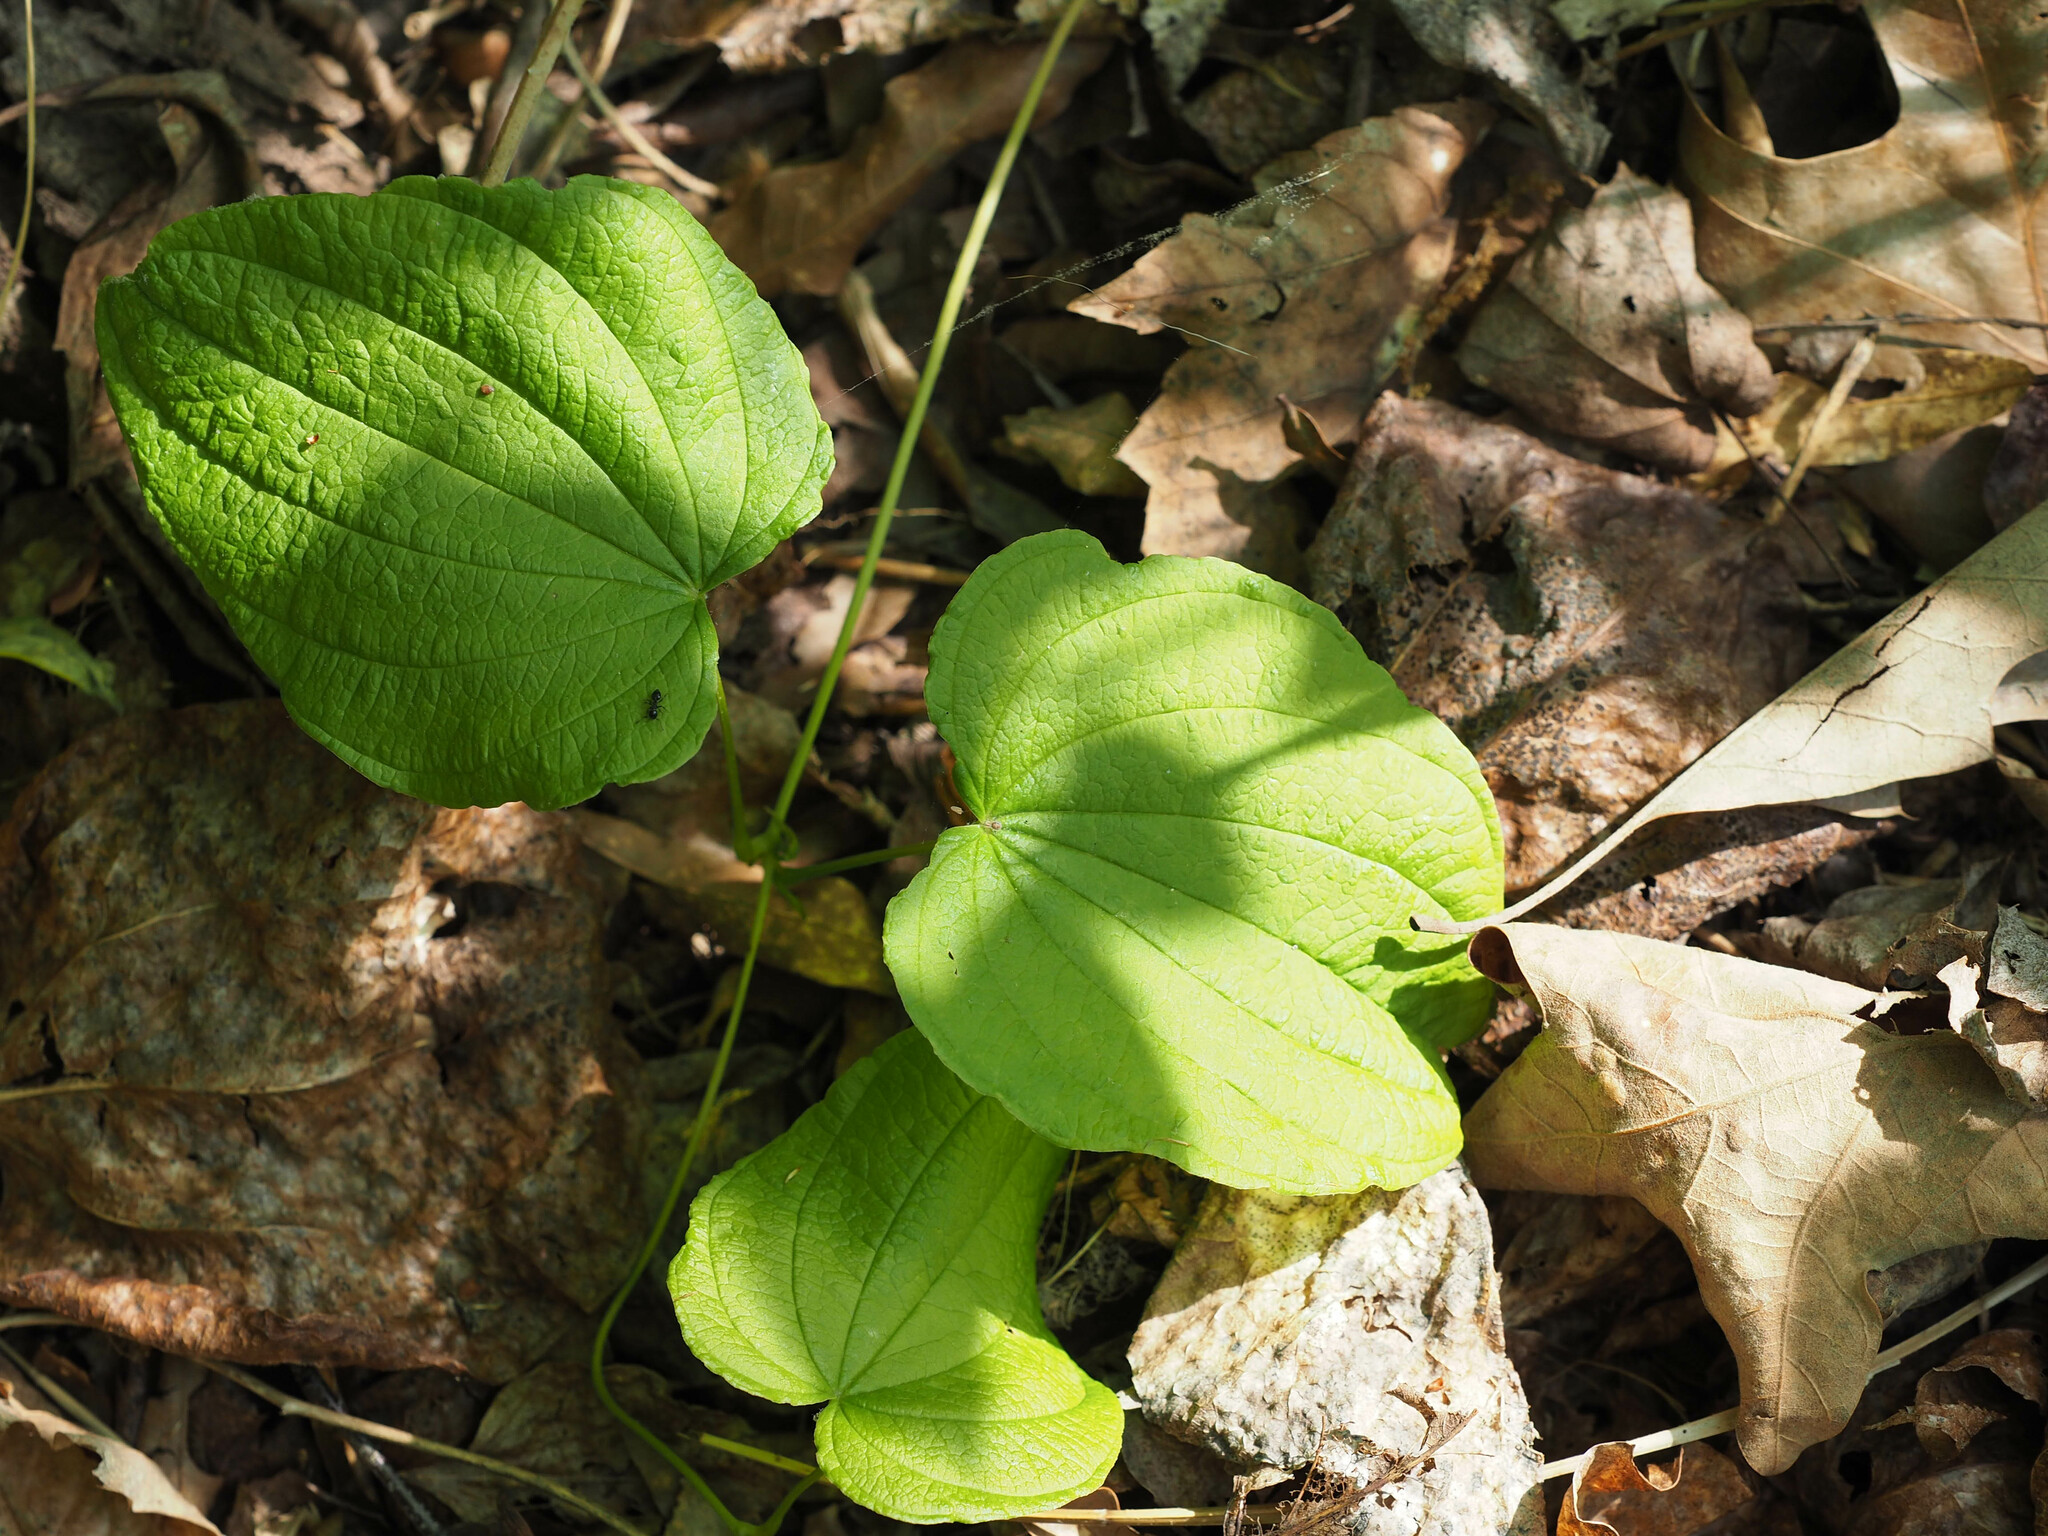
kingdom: Plantae
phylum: Tracheophyta
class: Liliopsida
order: Dioscoreales
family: Dioscoreaceae
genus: Dioscorea
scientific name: Dioscorea villosa
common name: Wild yam
